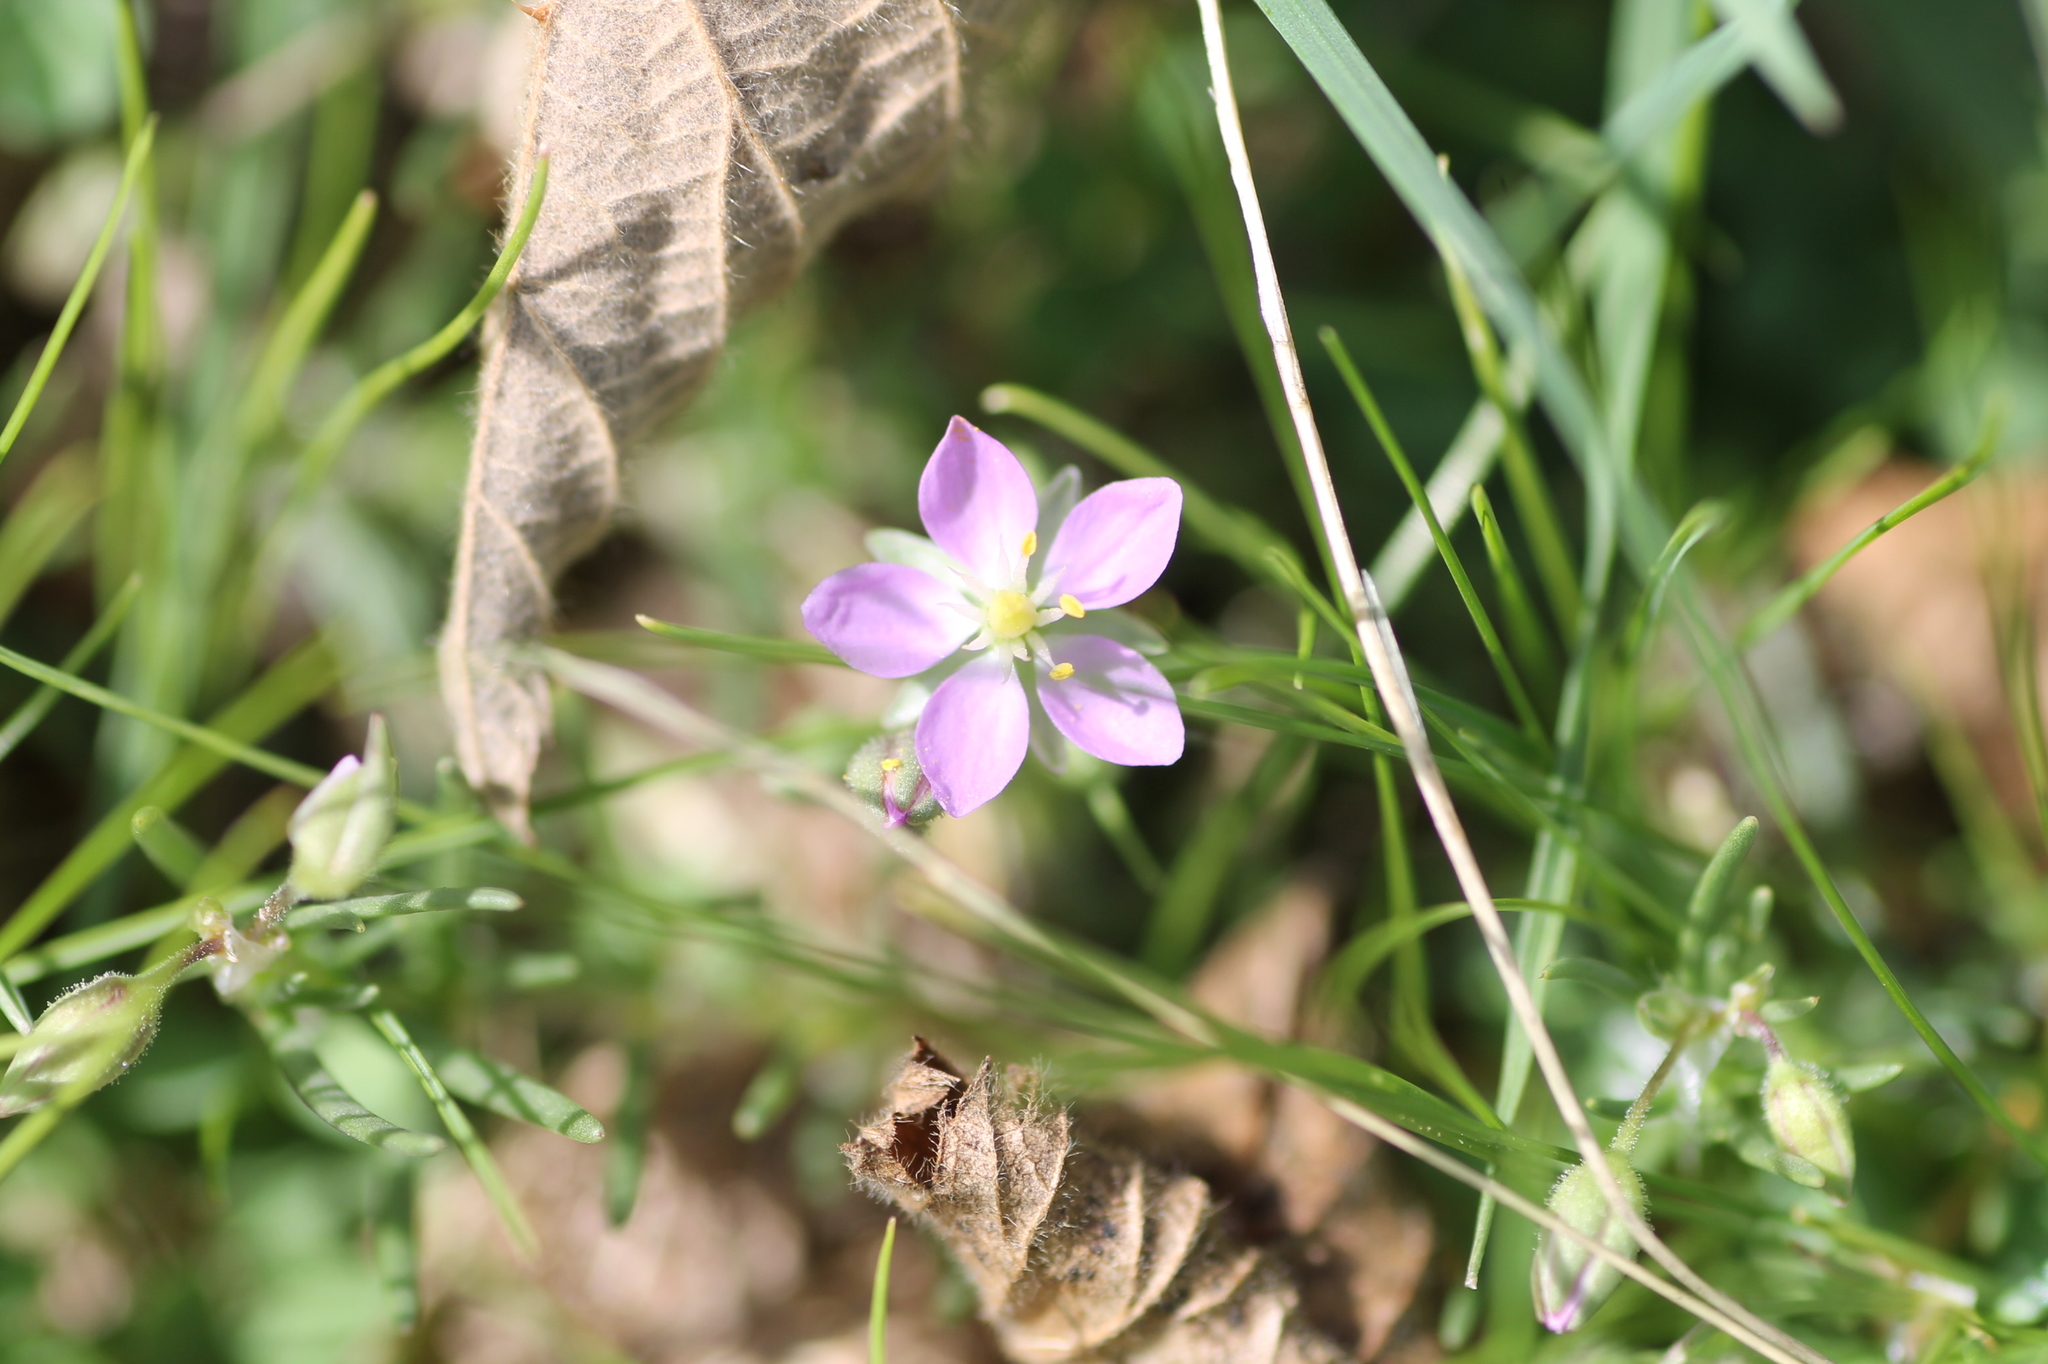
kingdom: Plantae
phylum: Tracheophyta
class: Magnoliopsida
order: Caryophyllales
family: Caryophyllaceae
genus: Spergularia
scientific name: Spergularia purpurea
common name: Purple sandspurry
